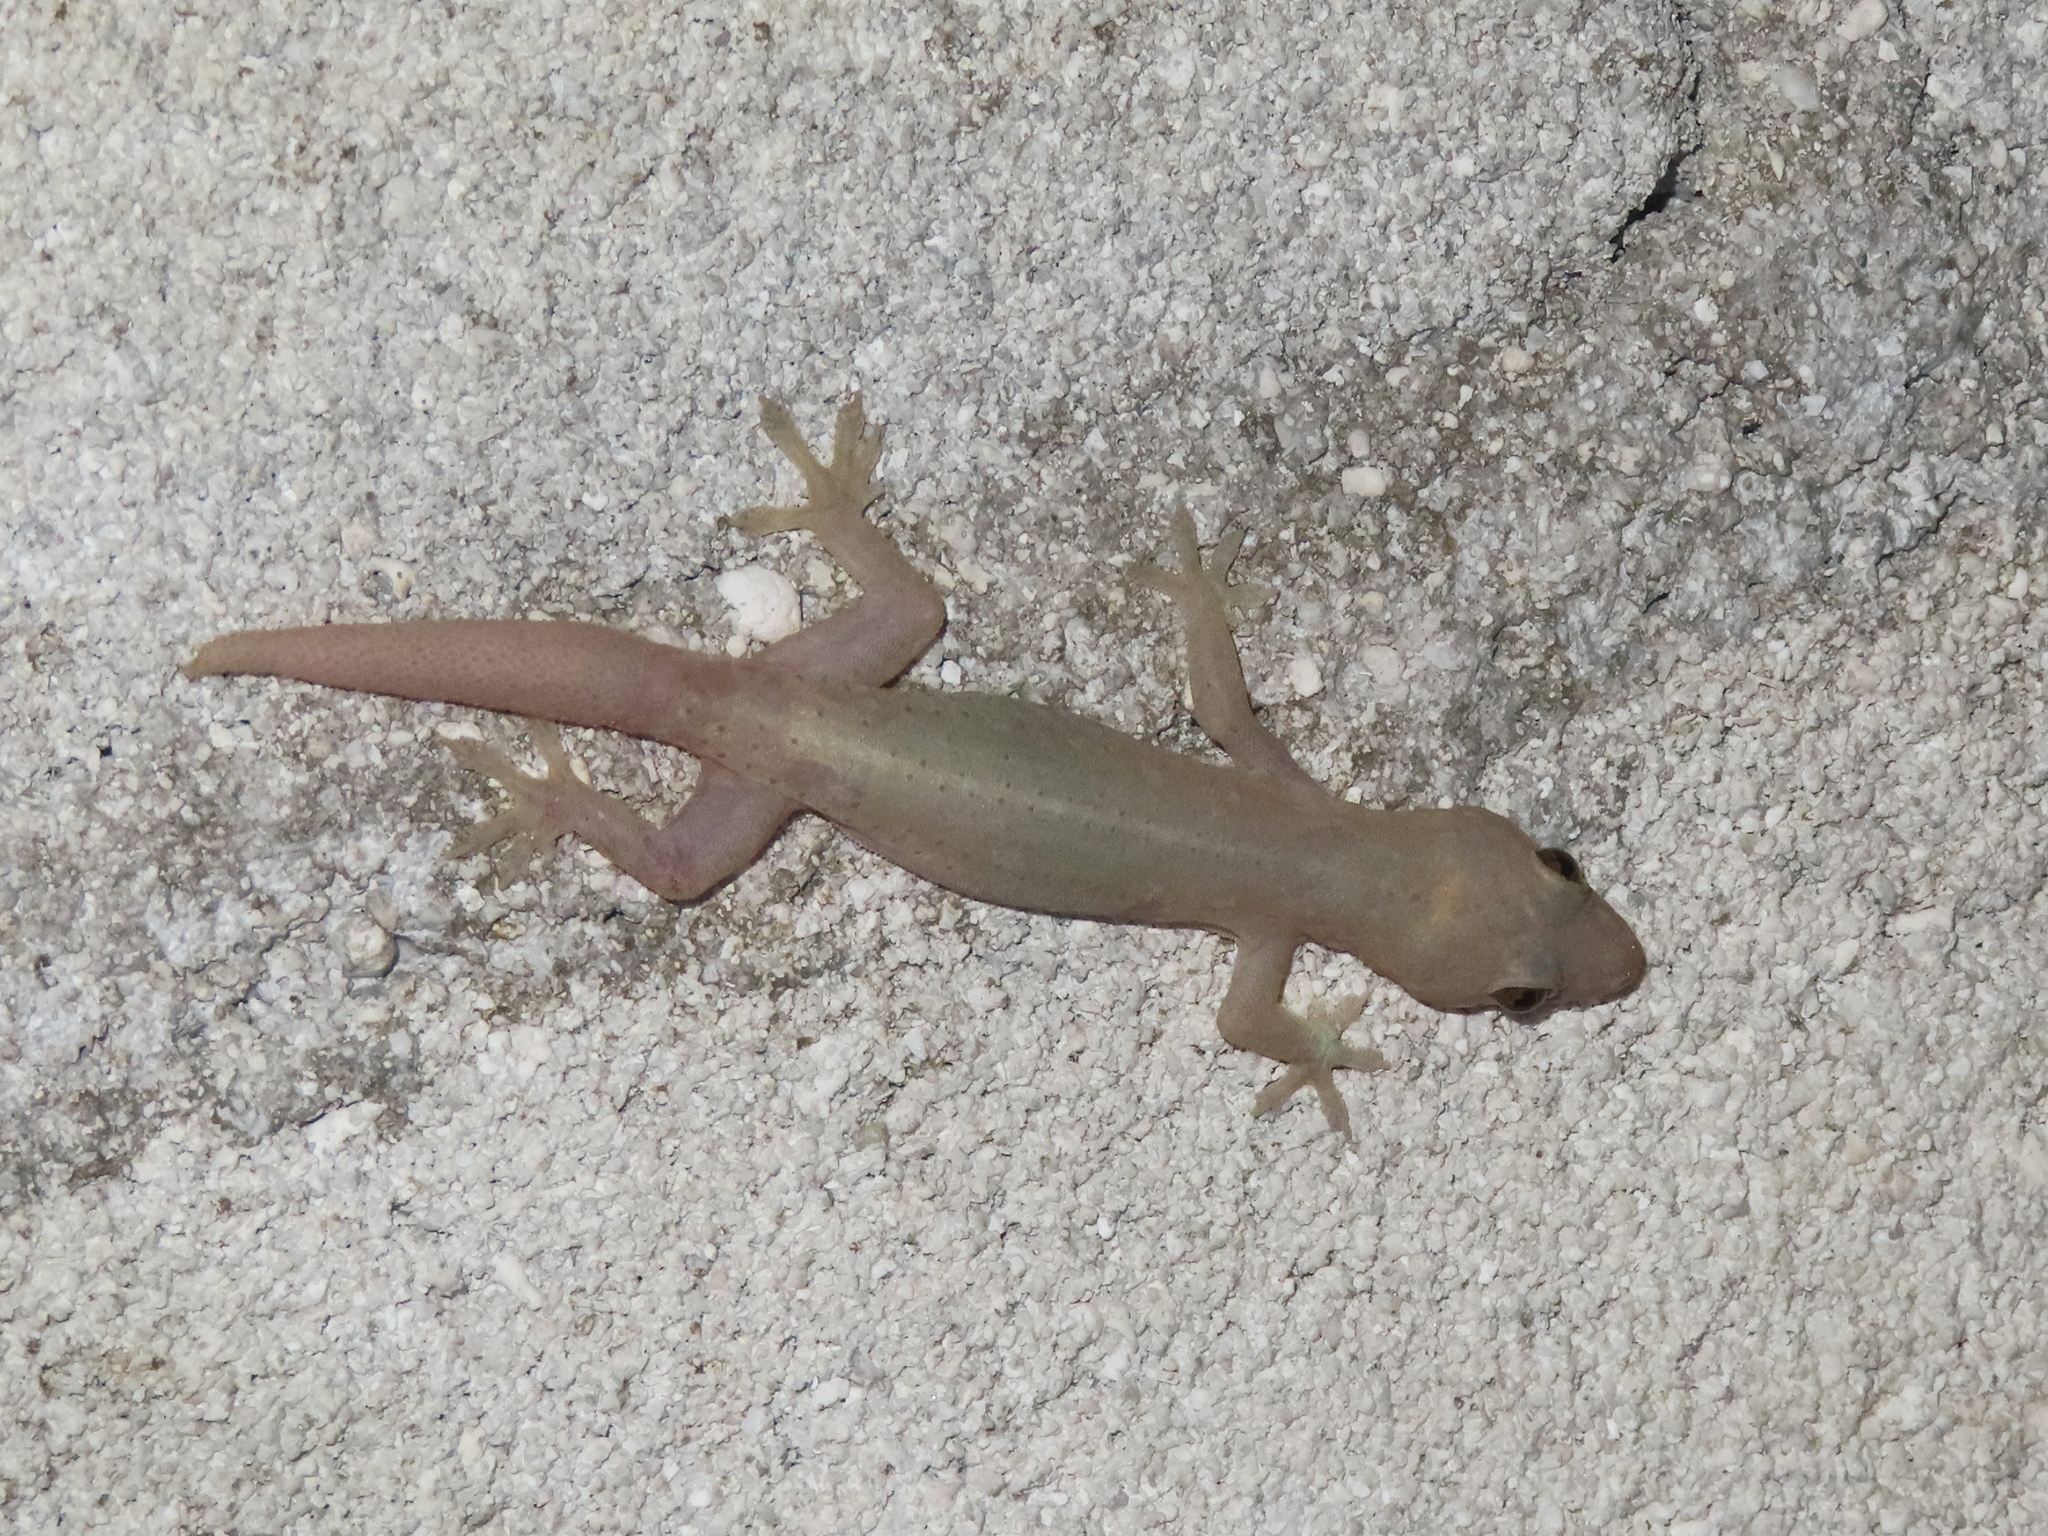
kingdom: Animalia
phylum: Chordata
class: Squamata
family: Gekkonidae
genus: Hemidactylus
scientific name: Hemidactylus frenatus
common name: Common house gecko
